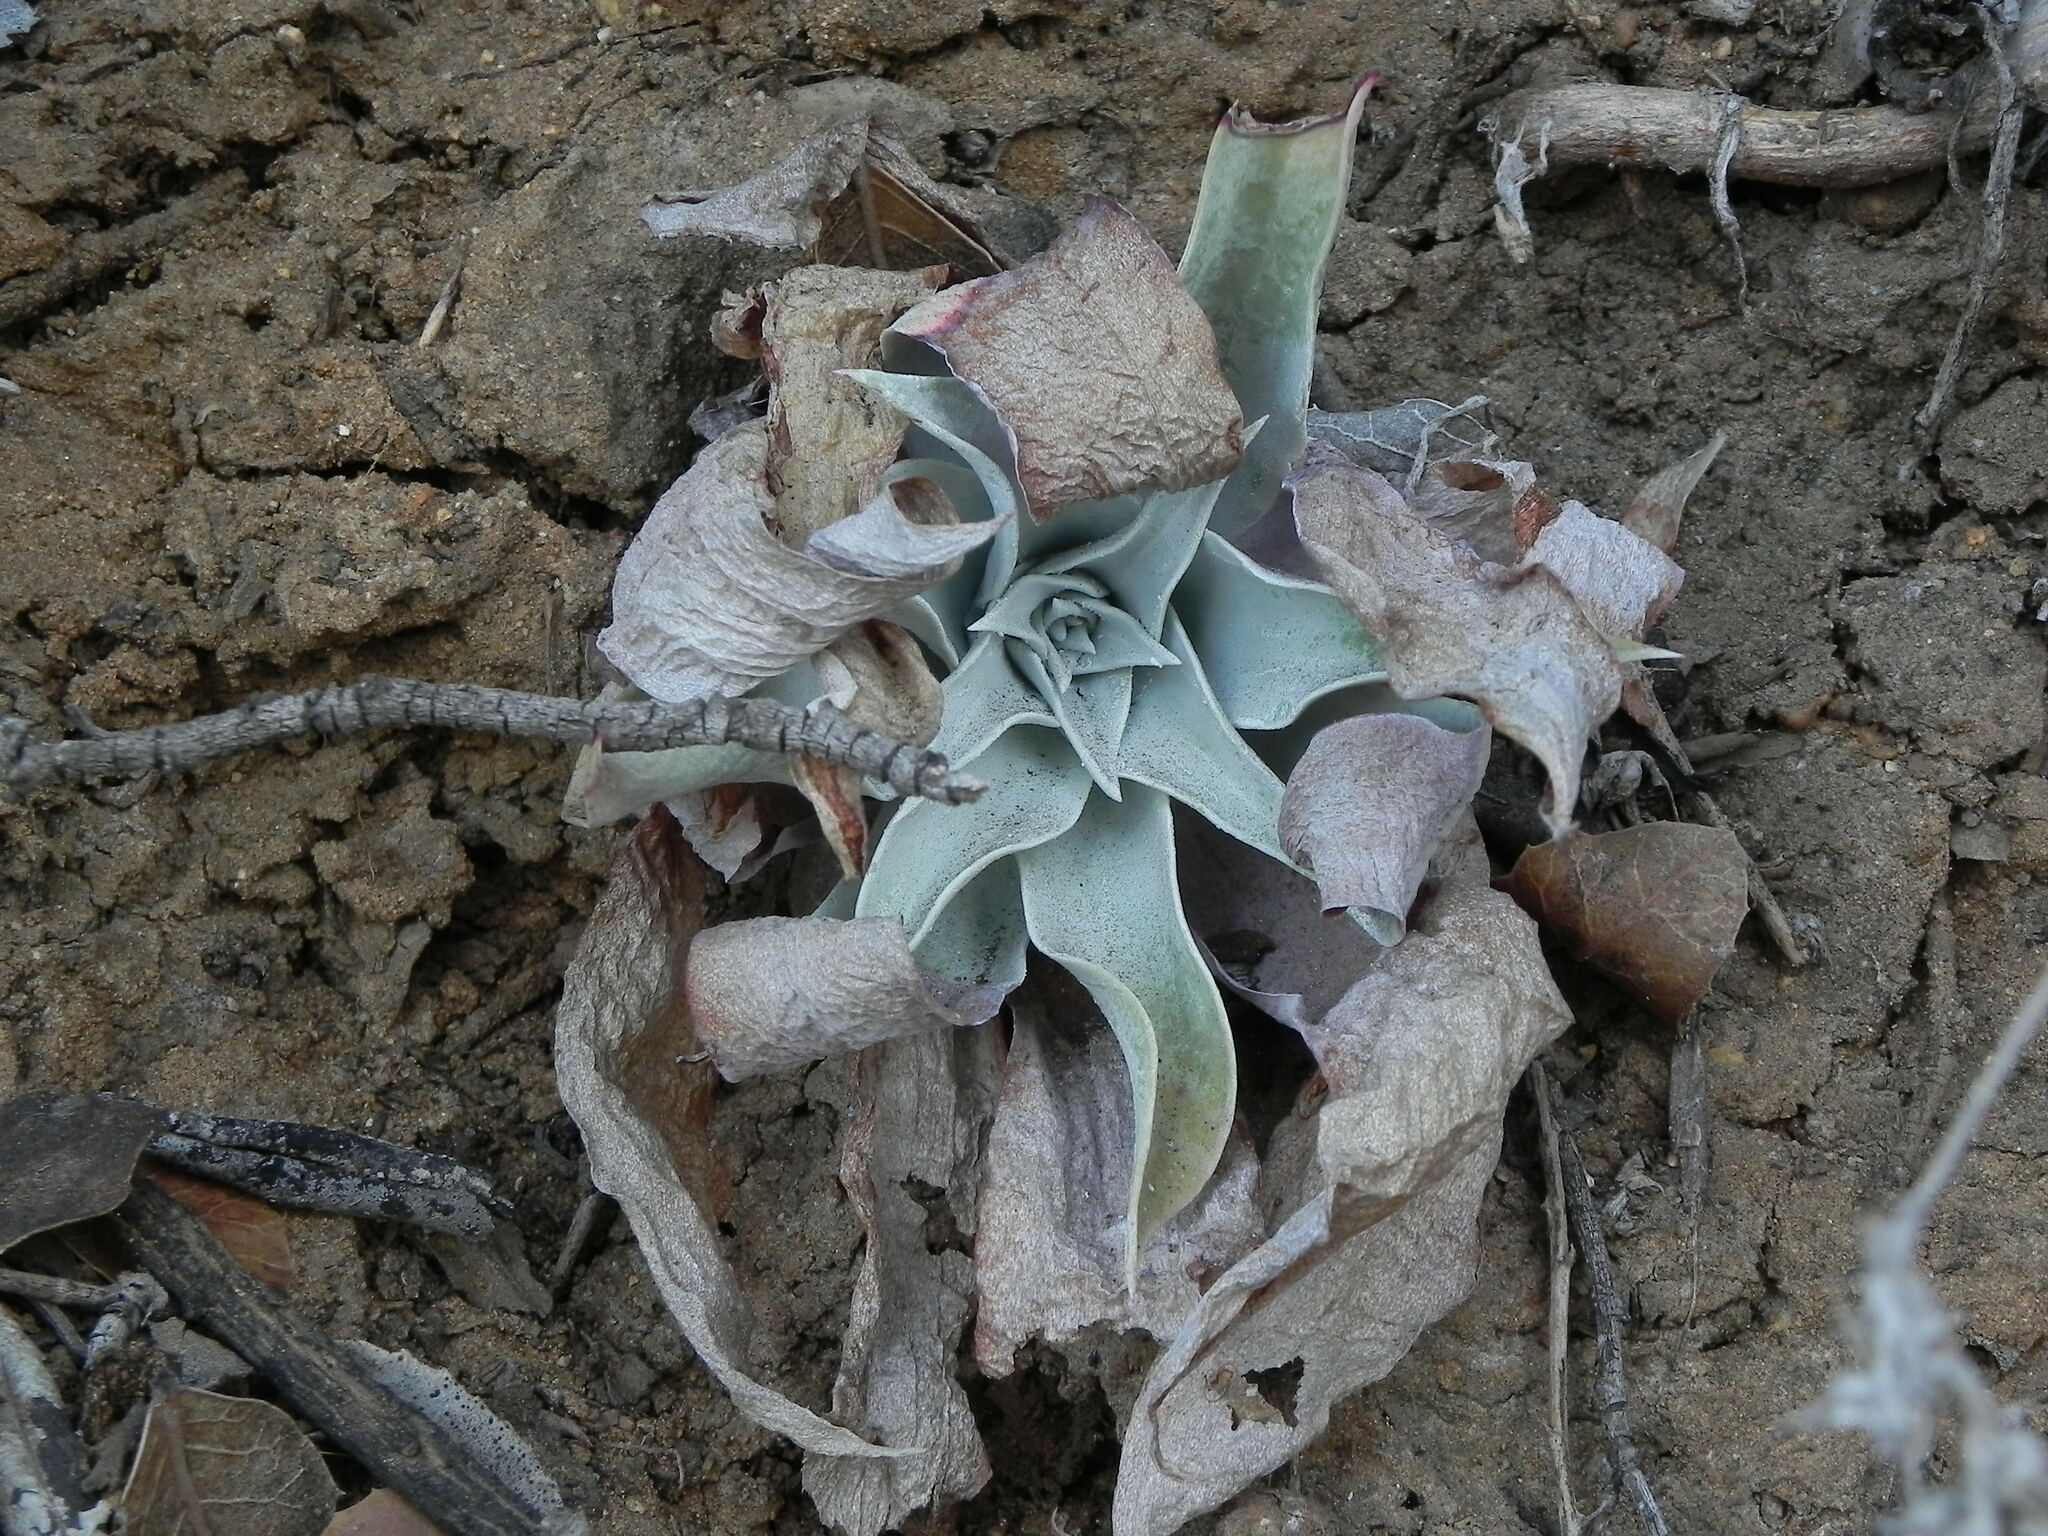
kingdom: Plantae
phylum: Tracheophyta
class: Magnoliopsida
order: Saxifragales
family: Crassulaceae
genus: Dudleya
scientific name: Dudleya pulverulenta
